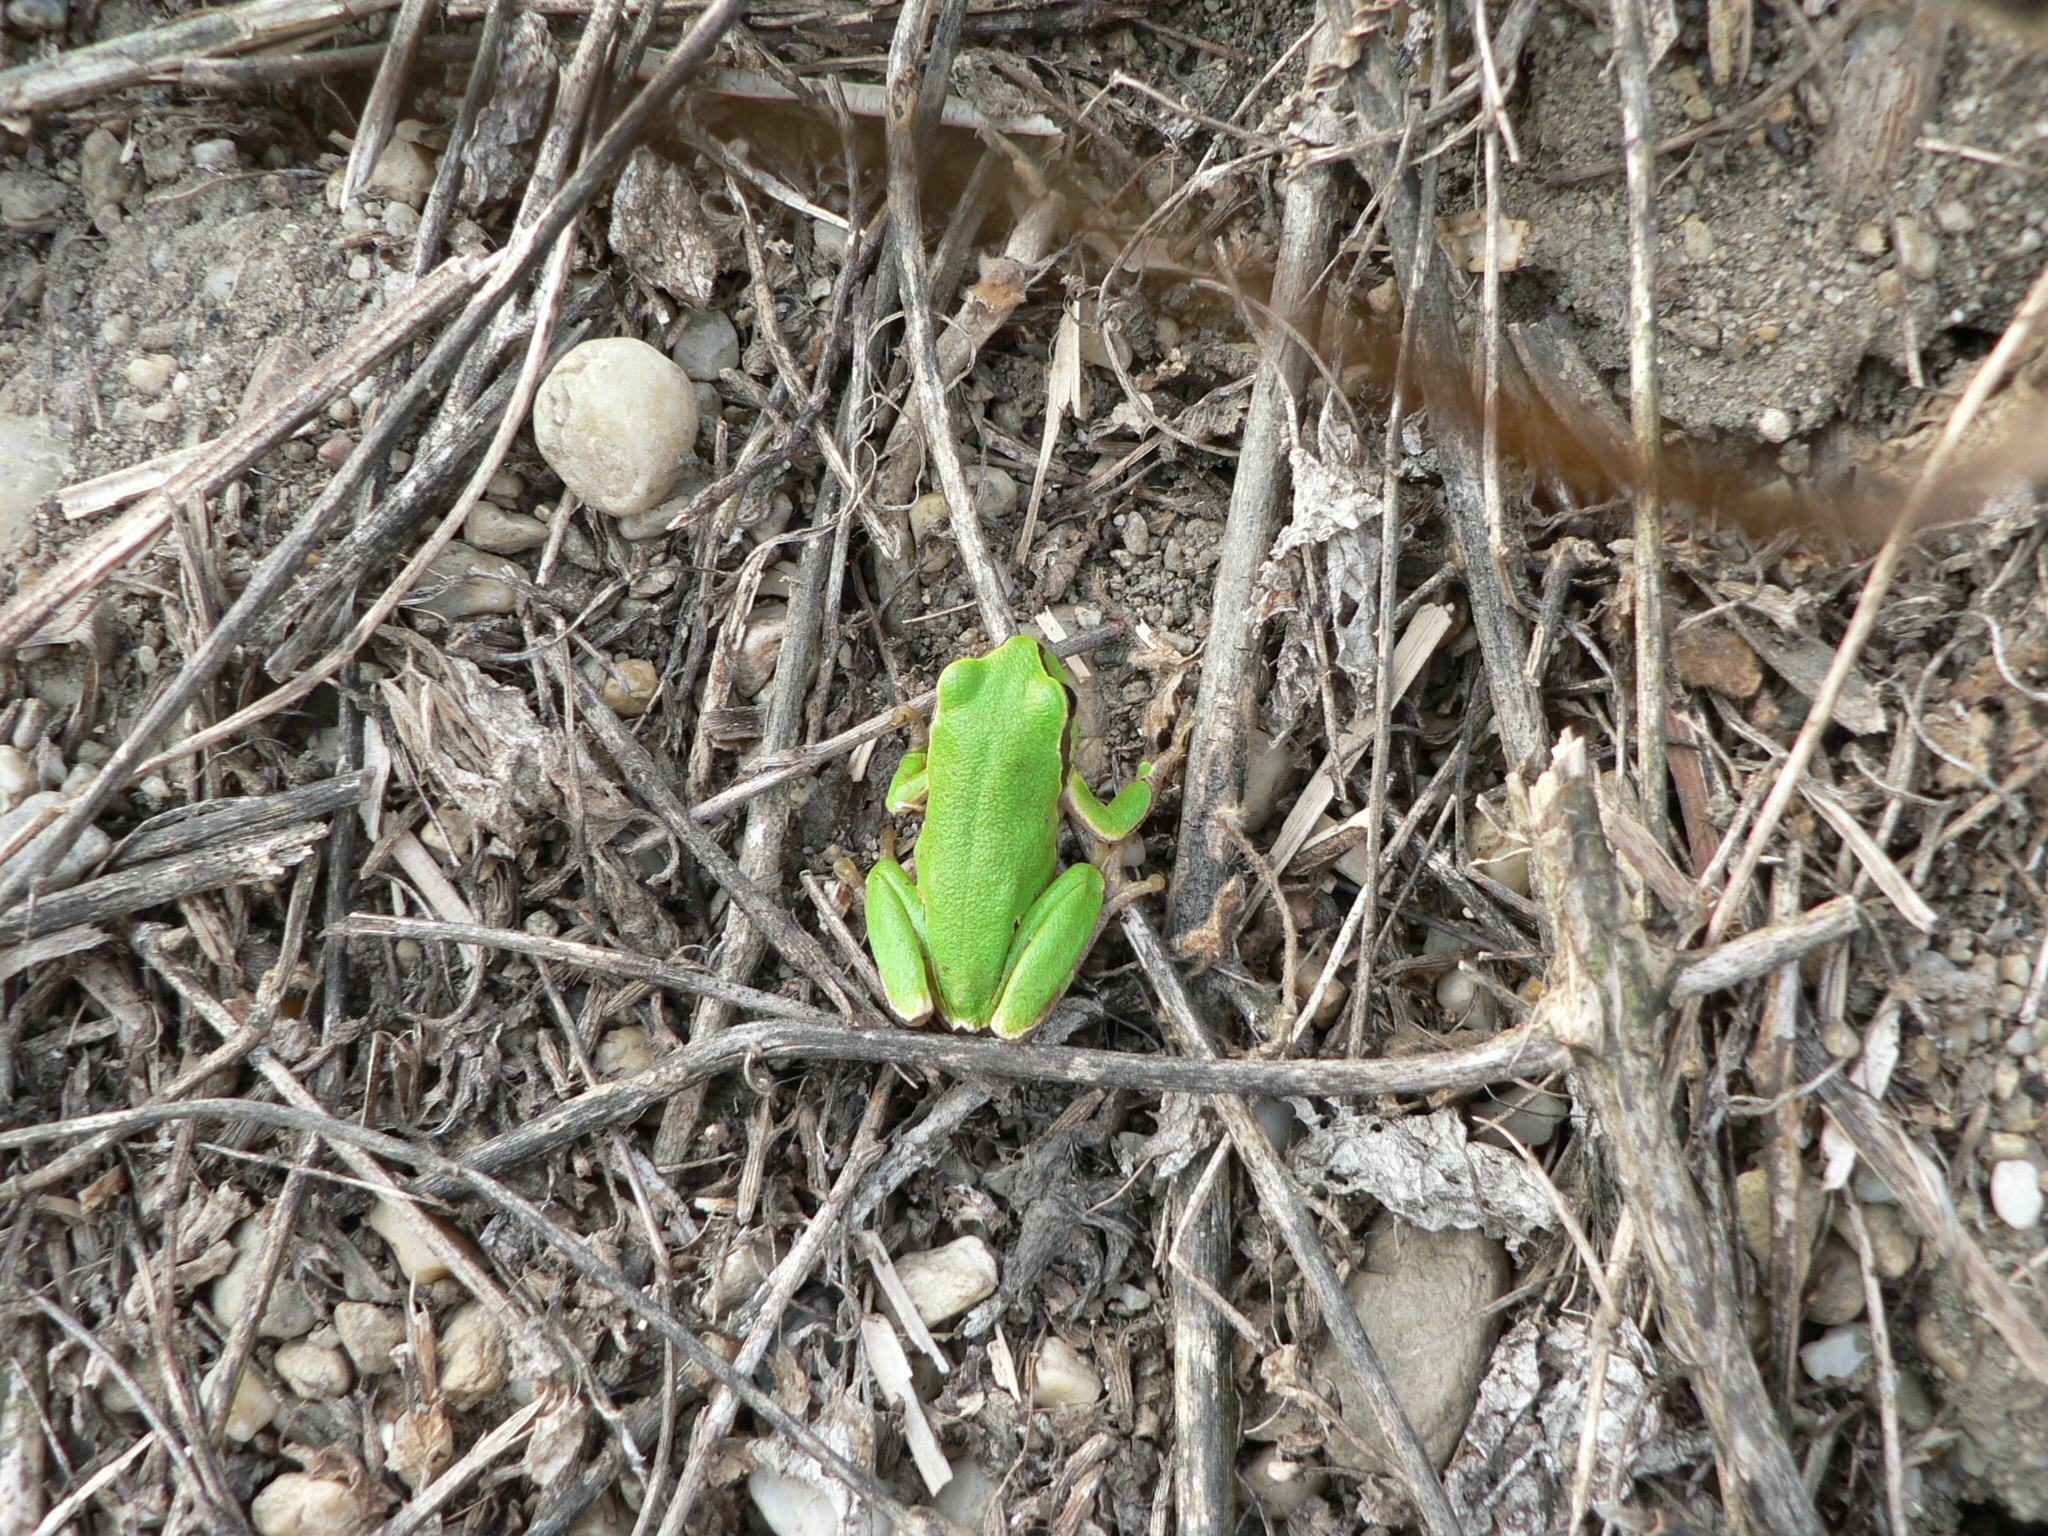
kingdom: Animalia
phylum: Chordata
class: Amphibia
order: Anura
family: Hylidae
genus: Hyla
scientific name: Hyla arborea
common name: Common tree frog
